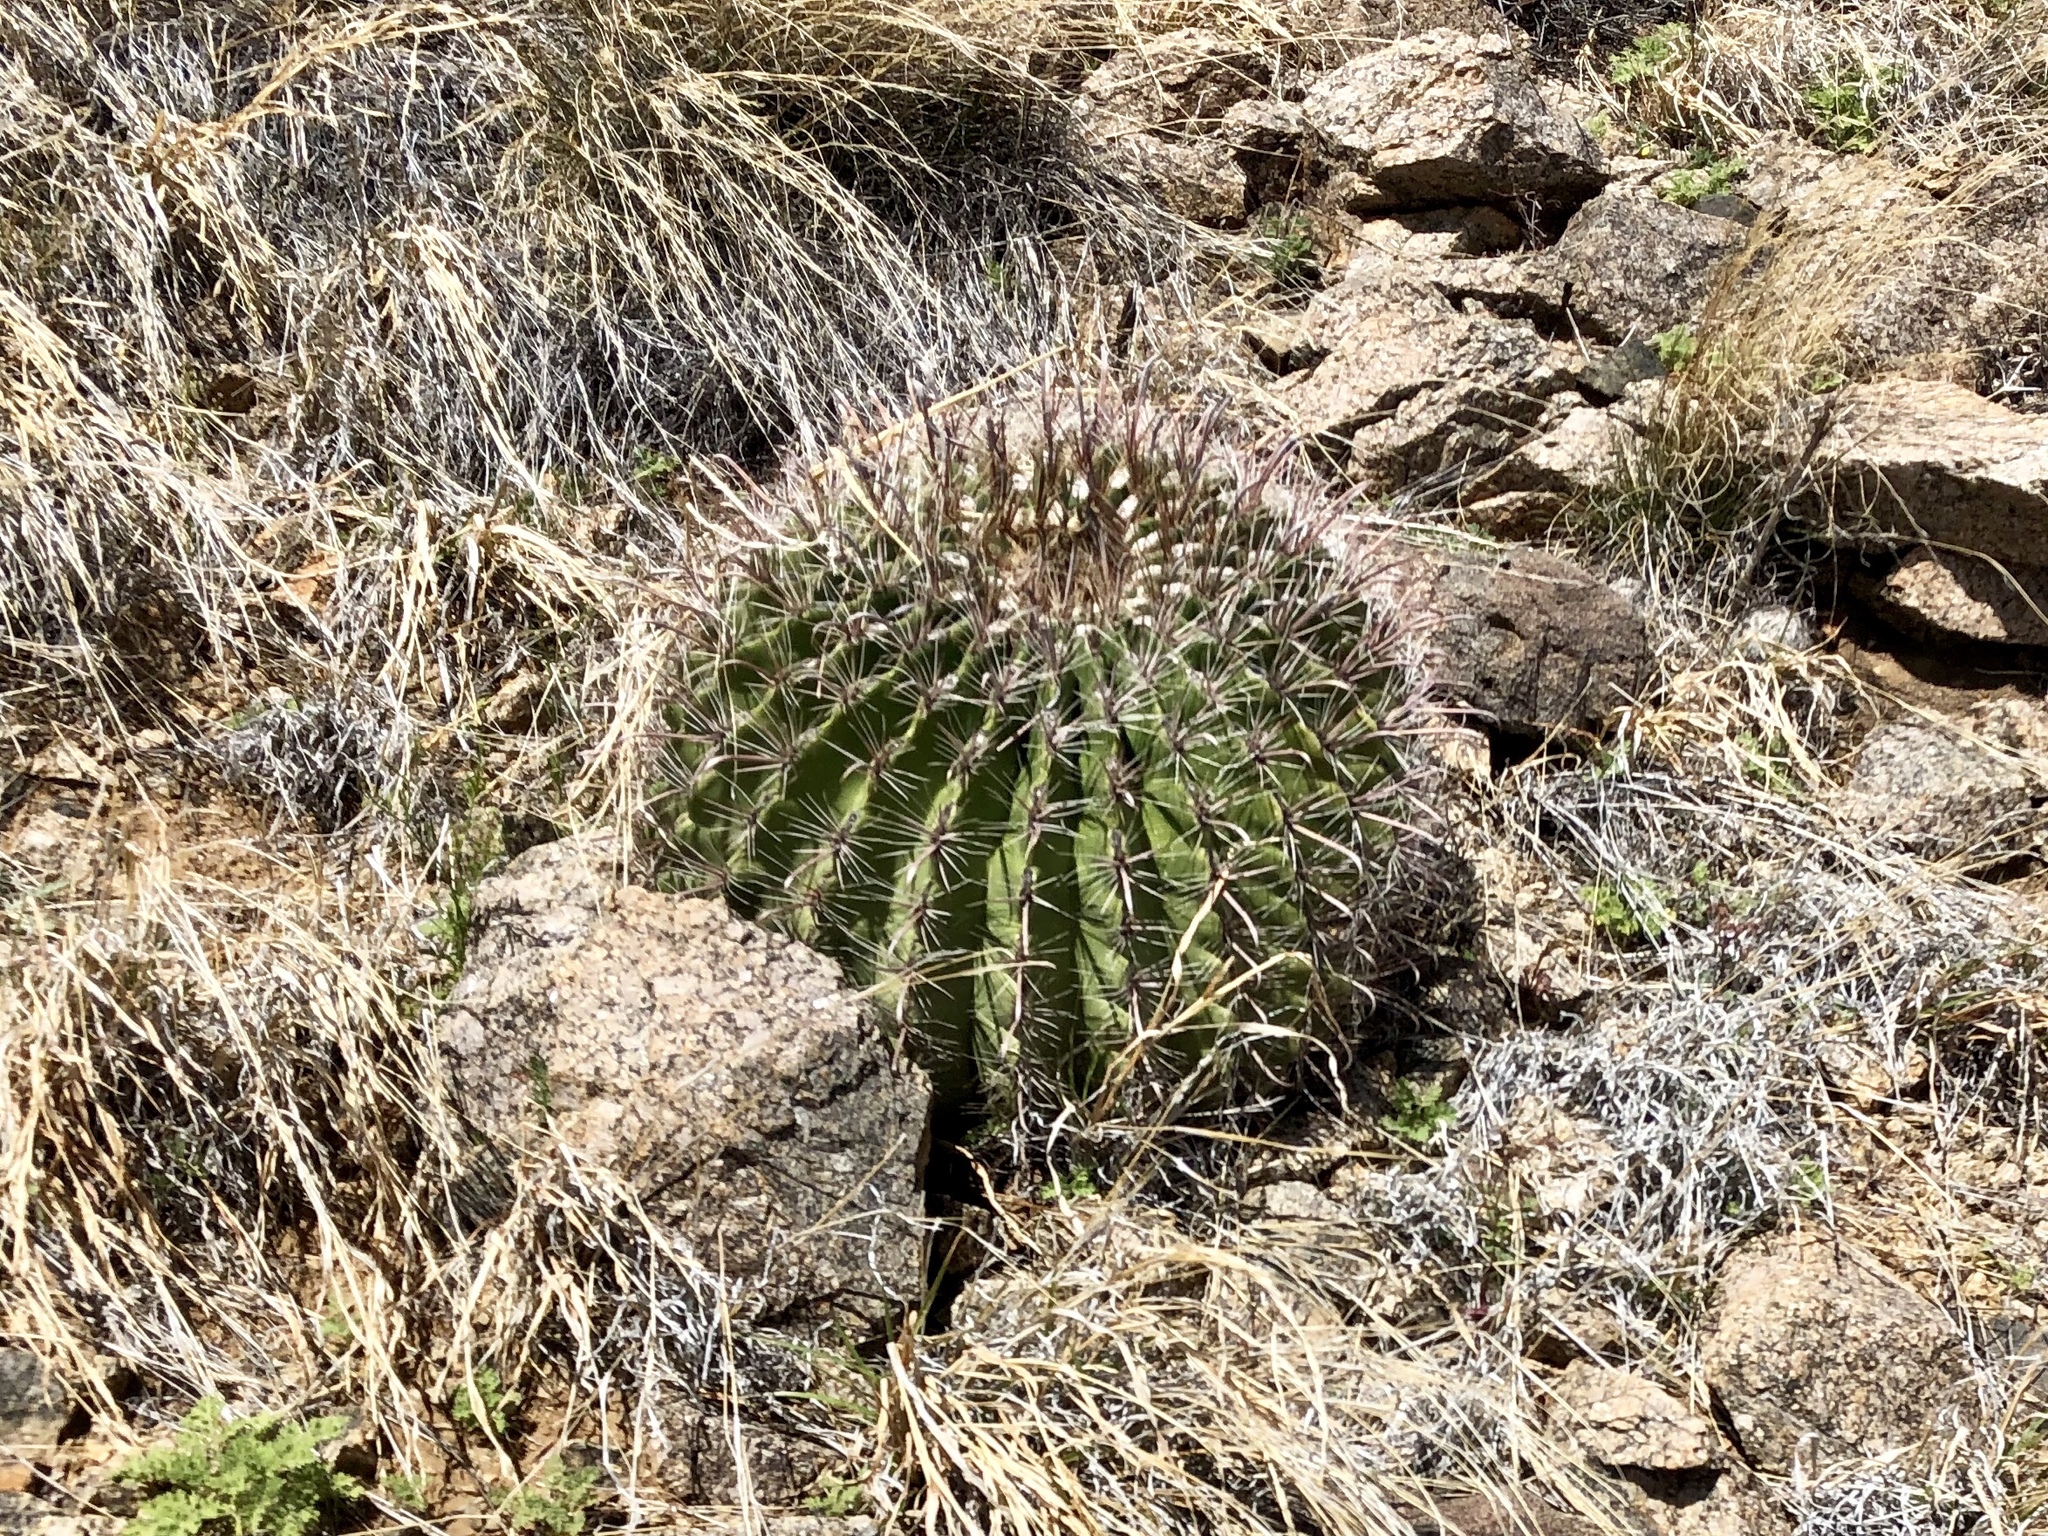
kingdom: Plantae
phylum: Tracheophyta
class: Magnoliopsida
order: Caryophyllales
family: Cactaceae
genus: Ferocactus
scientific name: Ferocactus wislizeni
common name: Candy barrel cactus
